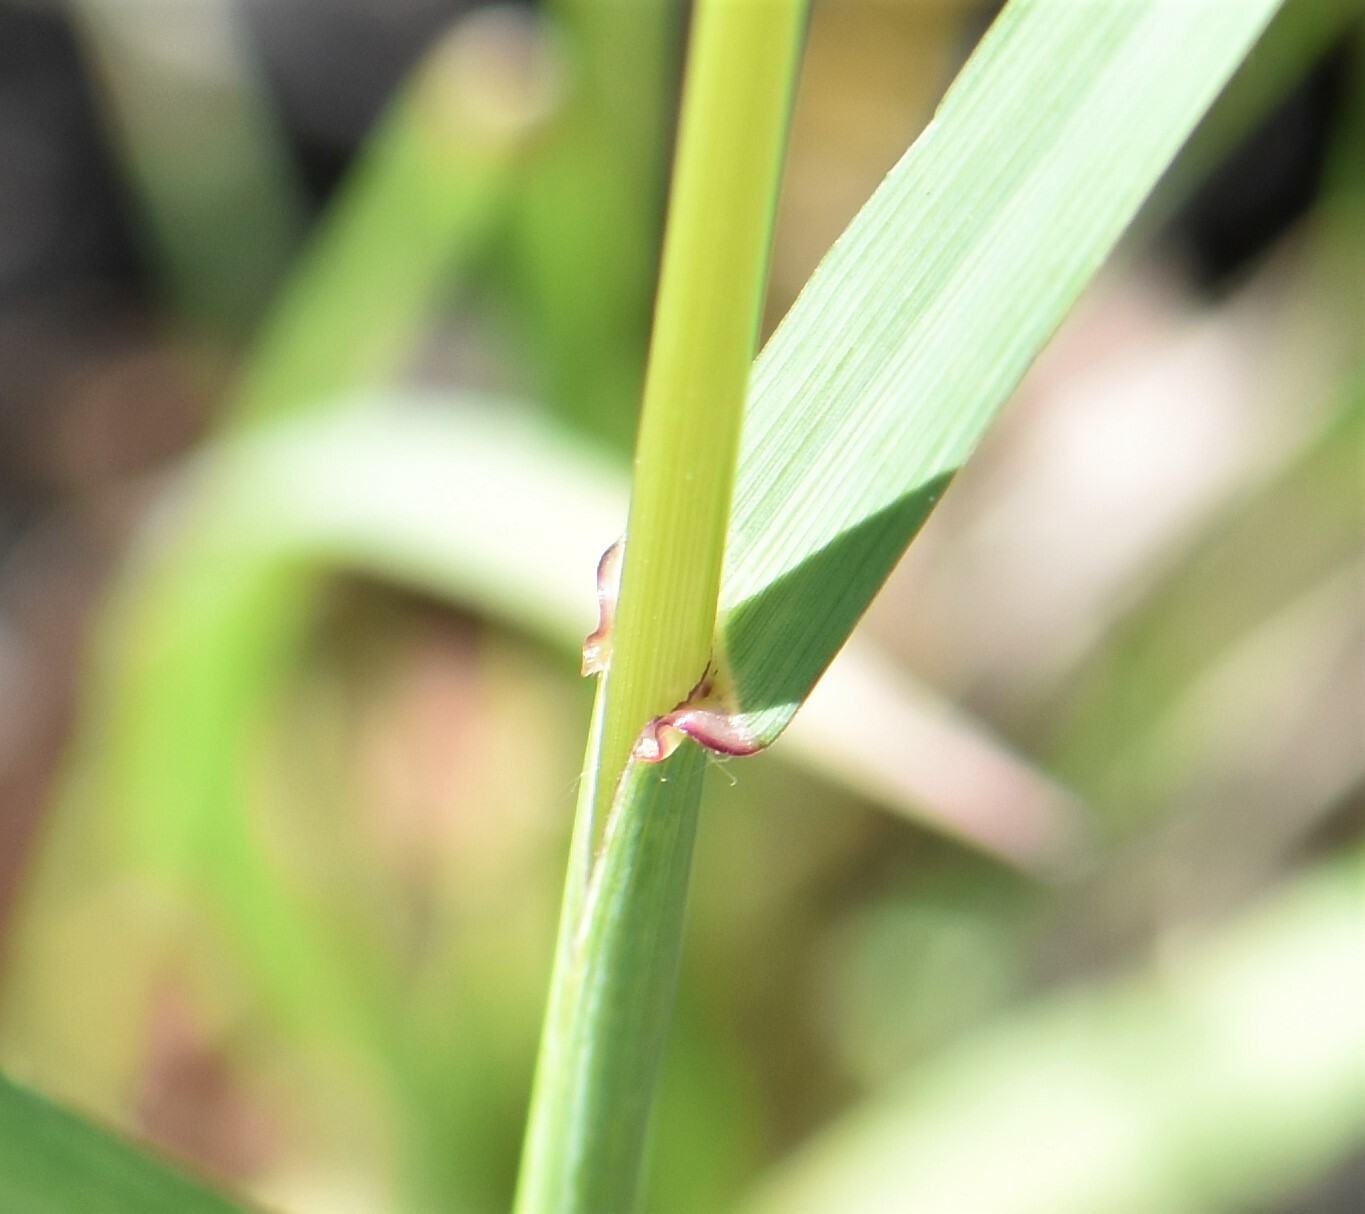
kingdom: Plantae
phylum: Tracheophyta
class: Liliopsida
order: Poales
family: Poaceae
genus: Bromus
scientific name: Bromus inermis
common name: Smooth brome
